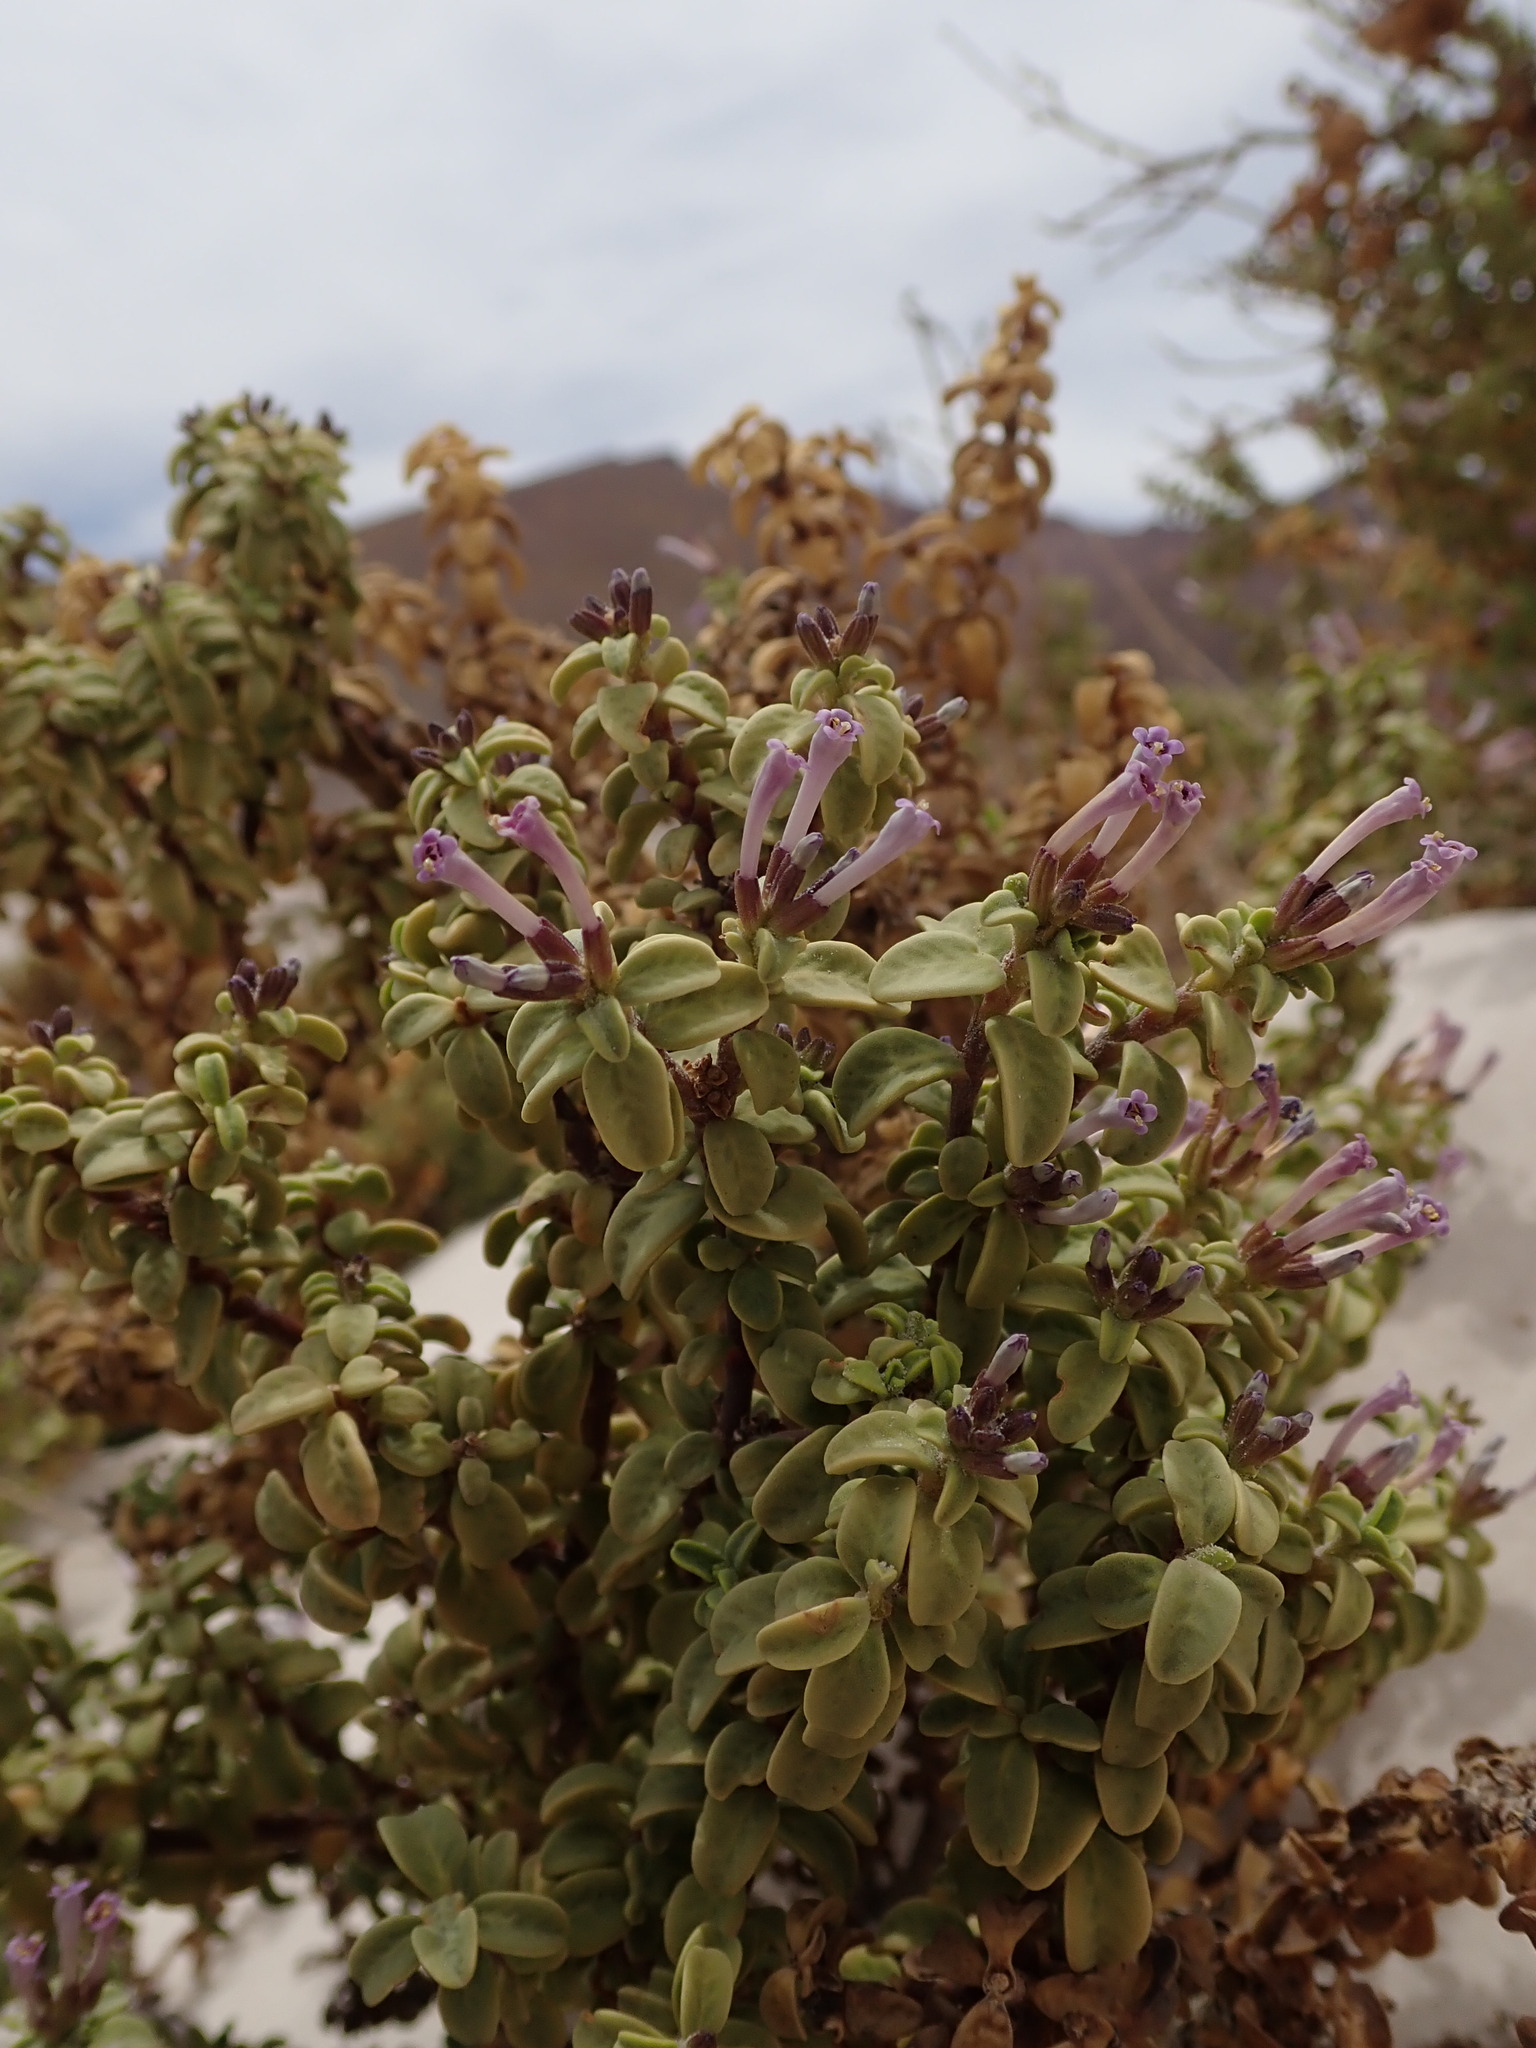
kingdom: Plantae
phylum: Tracheophyta
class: Magnoliopsida
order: Lamiales
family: Verbenaceae
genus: Lampayo
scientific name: Lampayo officinalis
